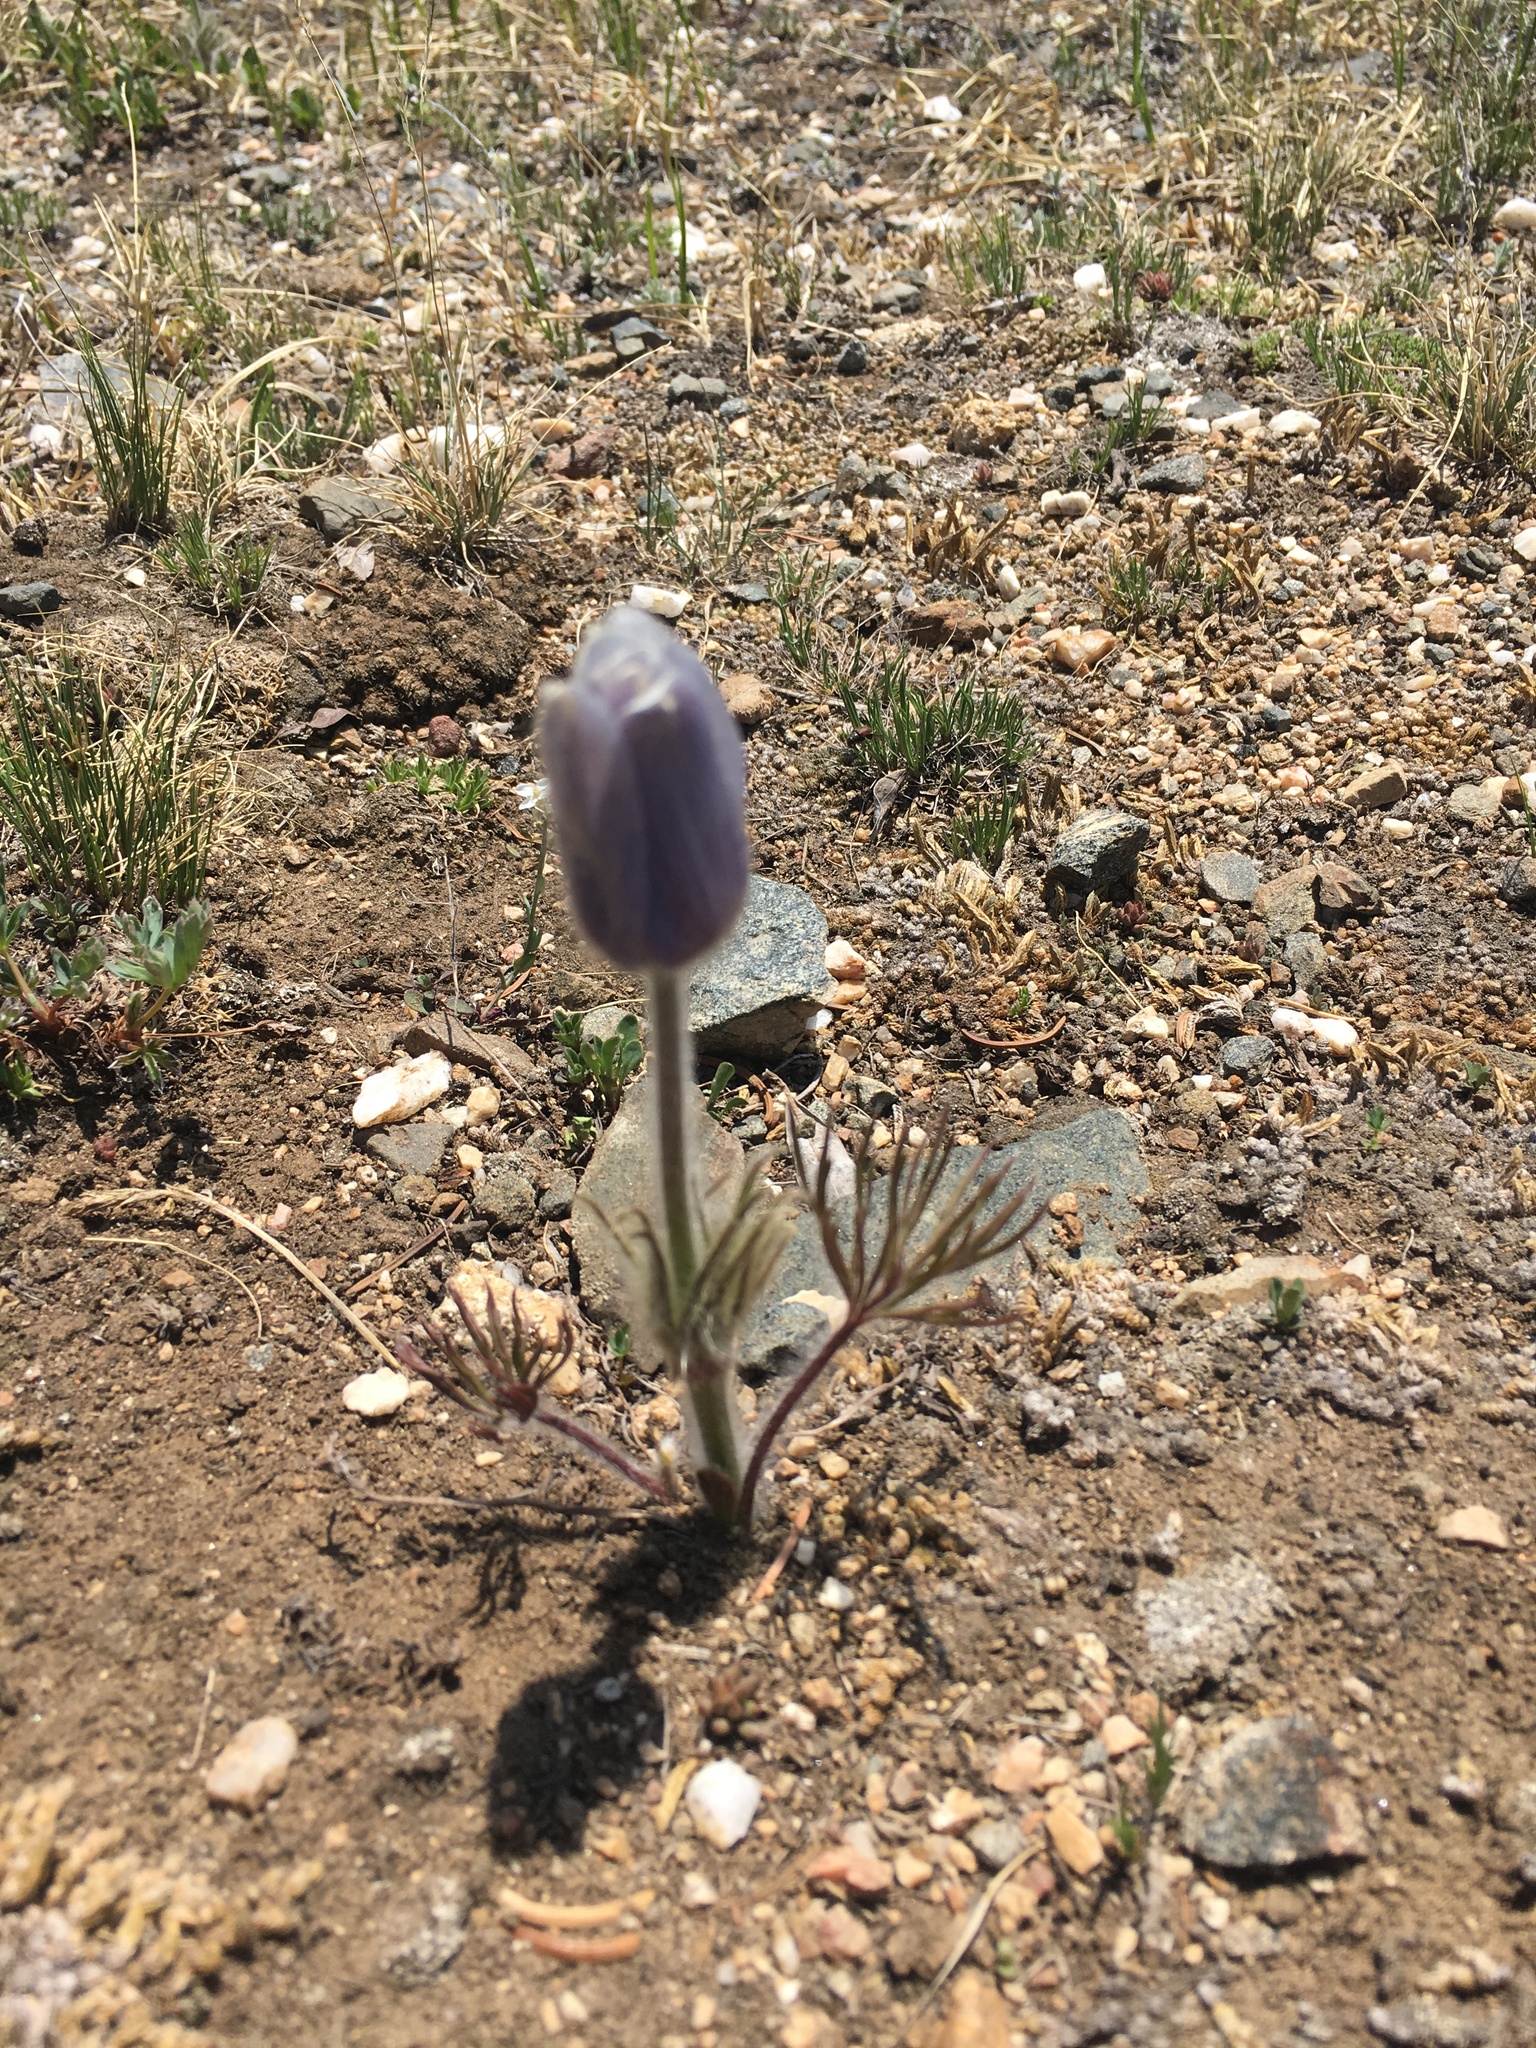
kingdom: Plantae
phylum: Tracheophyta
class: Magnoliopsida
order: Ranunculales
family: Ranunculaceae
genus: Pulsatilla
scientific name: Pulsatilla nuttalliana
